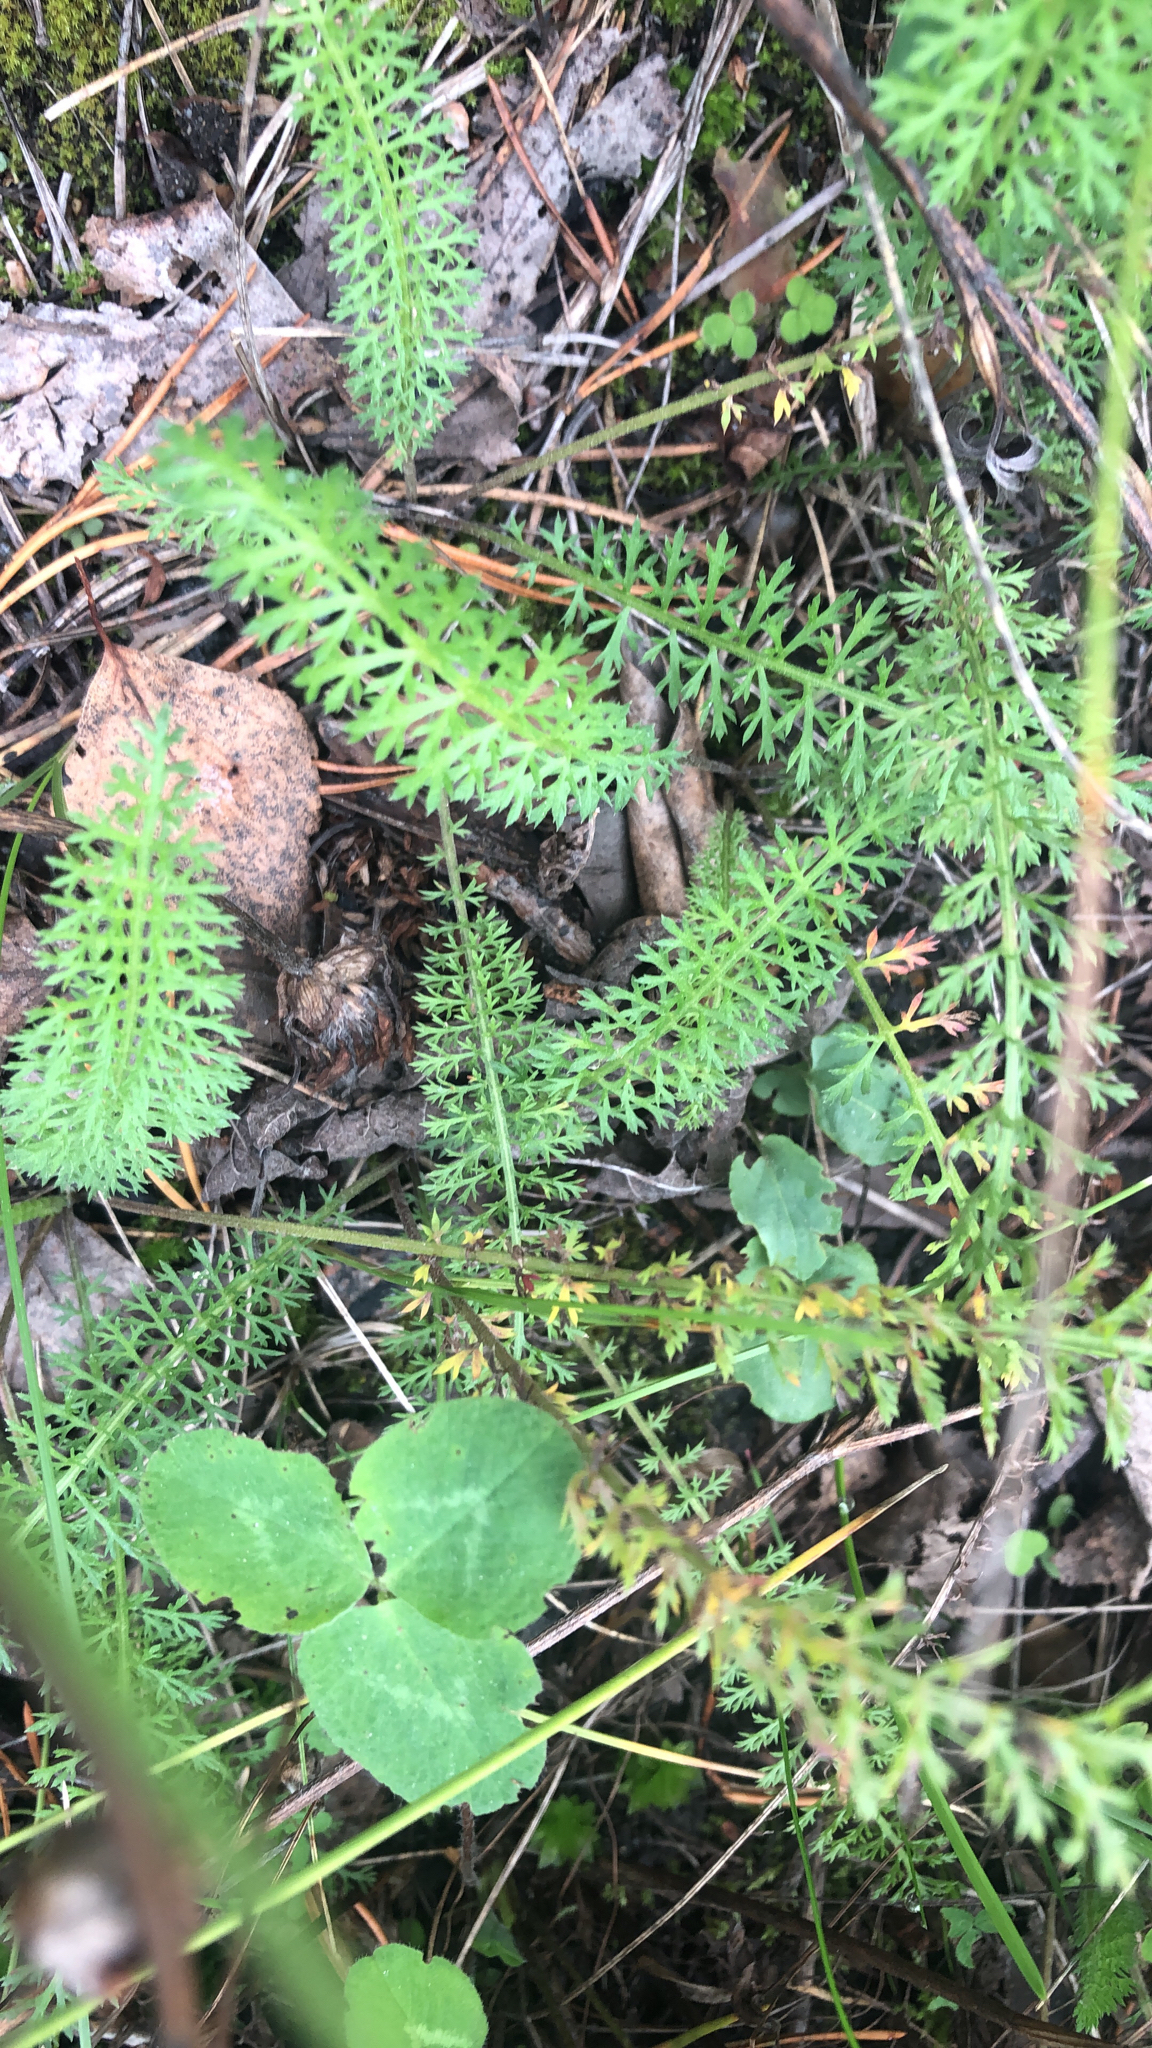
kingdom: Plantae
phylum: Tracheophyta
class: Magnoliopsida
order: Asterales
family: Asteraceae
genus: Achillea
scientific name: Achillea millefolium
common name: Yarrow
